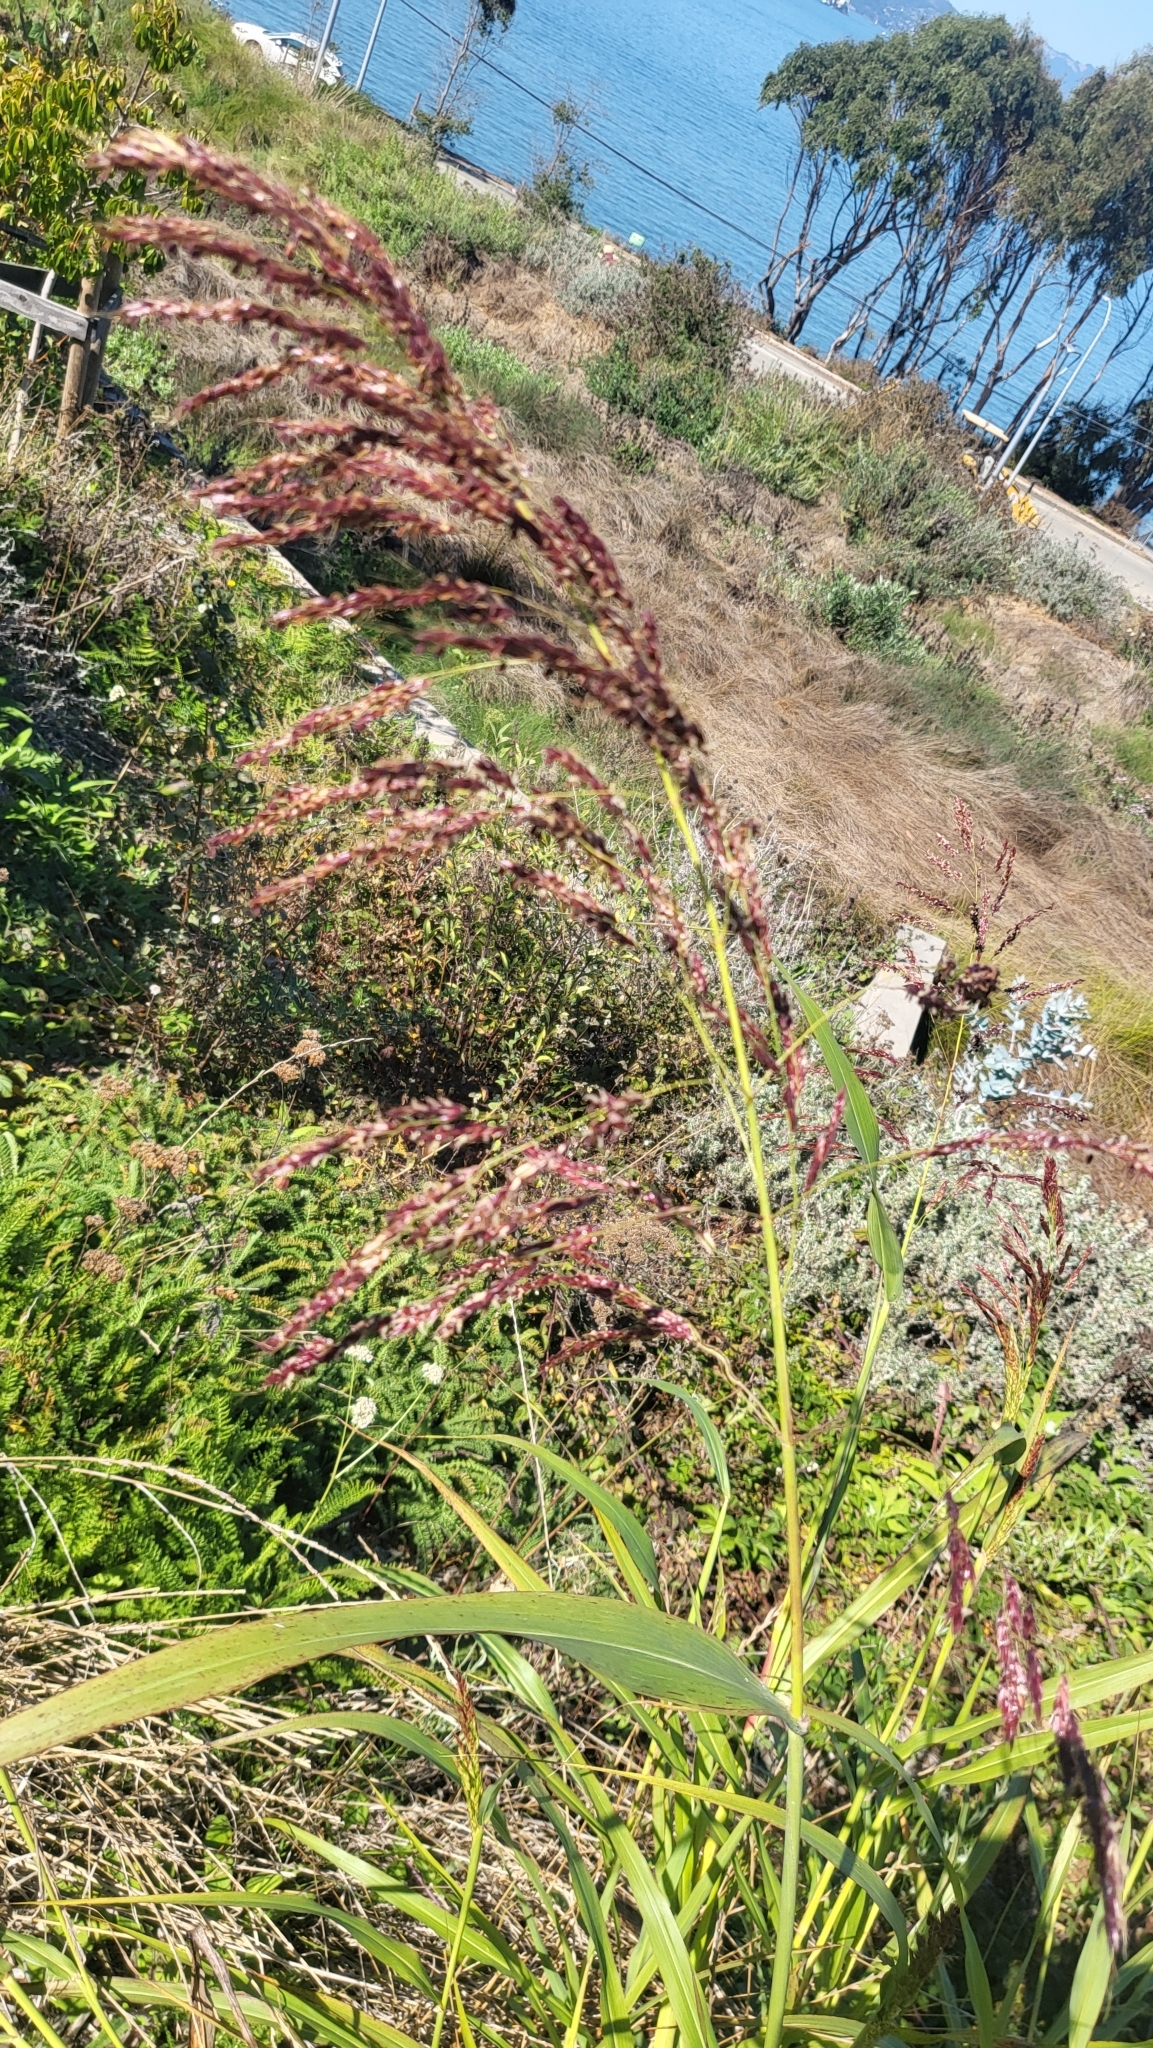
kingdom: Plantae
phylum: Tracheophyta
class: Liliopsida
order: Poales
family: Poaceae
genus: Sorghum
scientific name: Sorghum halepense
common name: Johnson-grass
